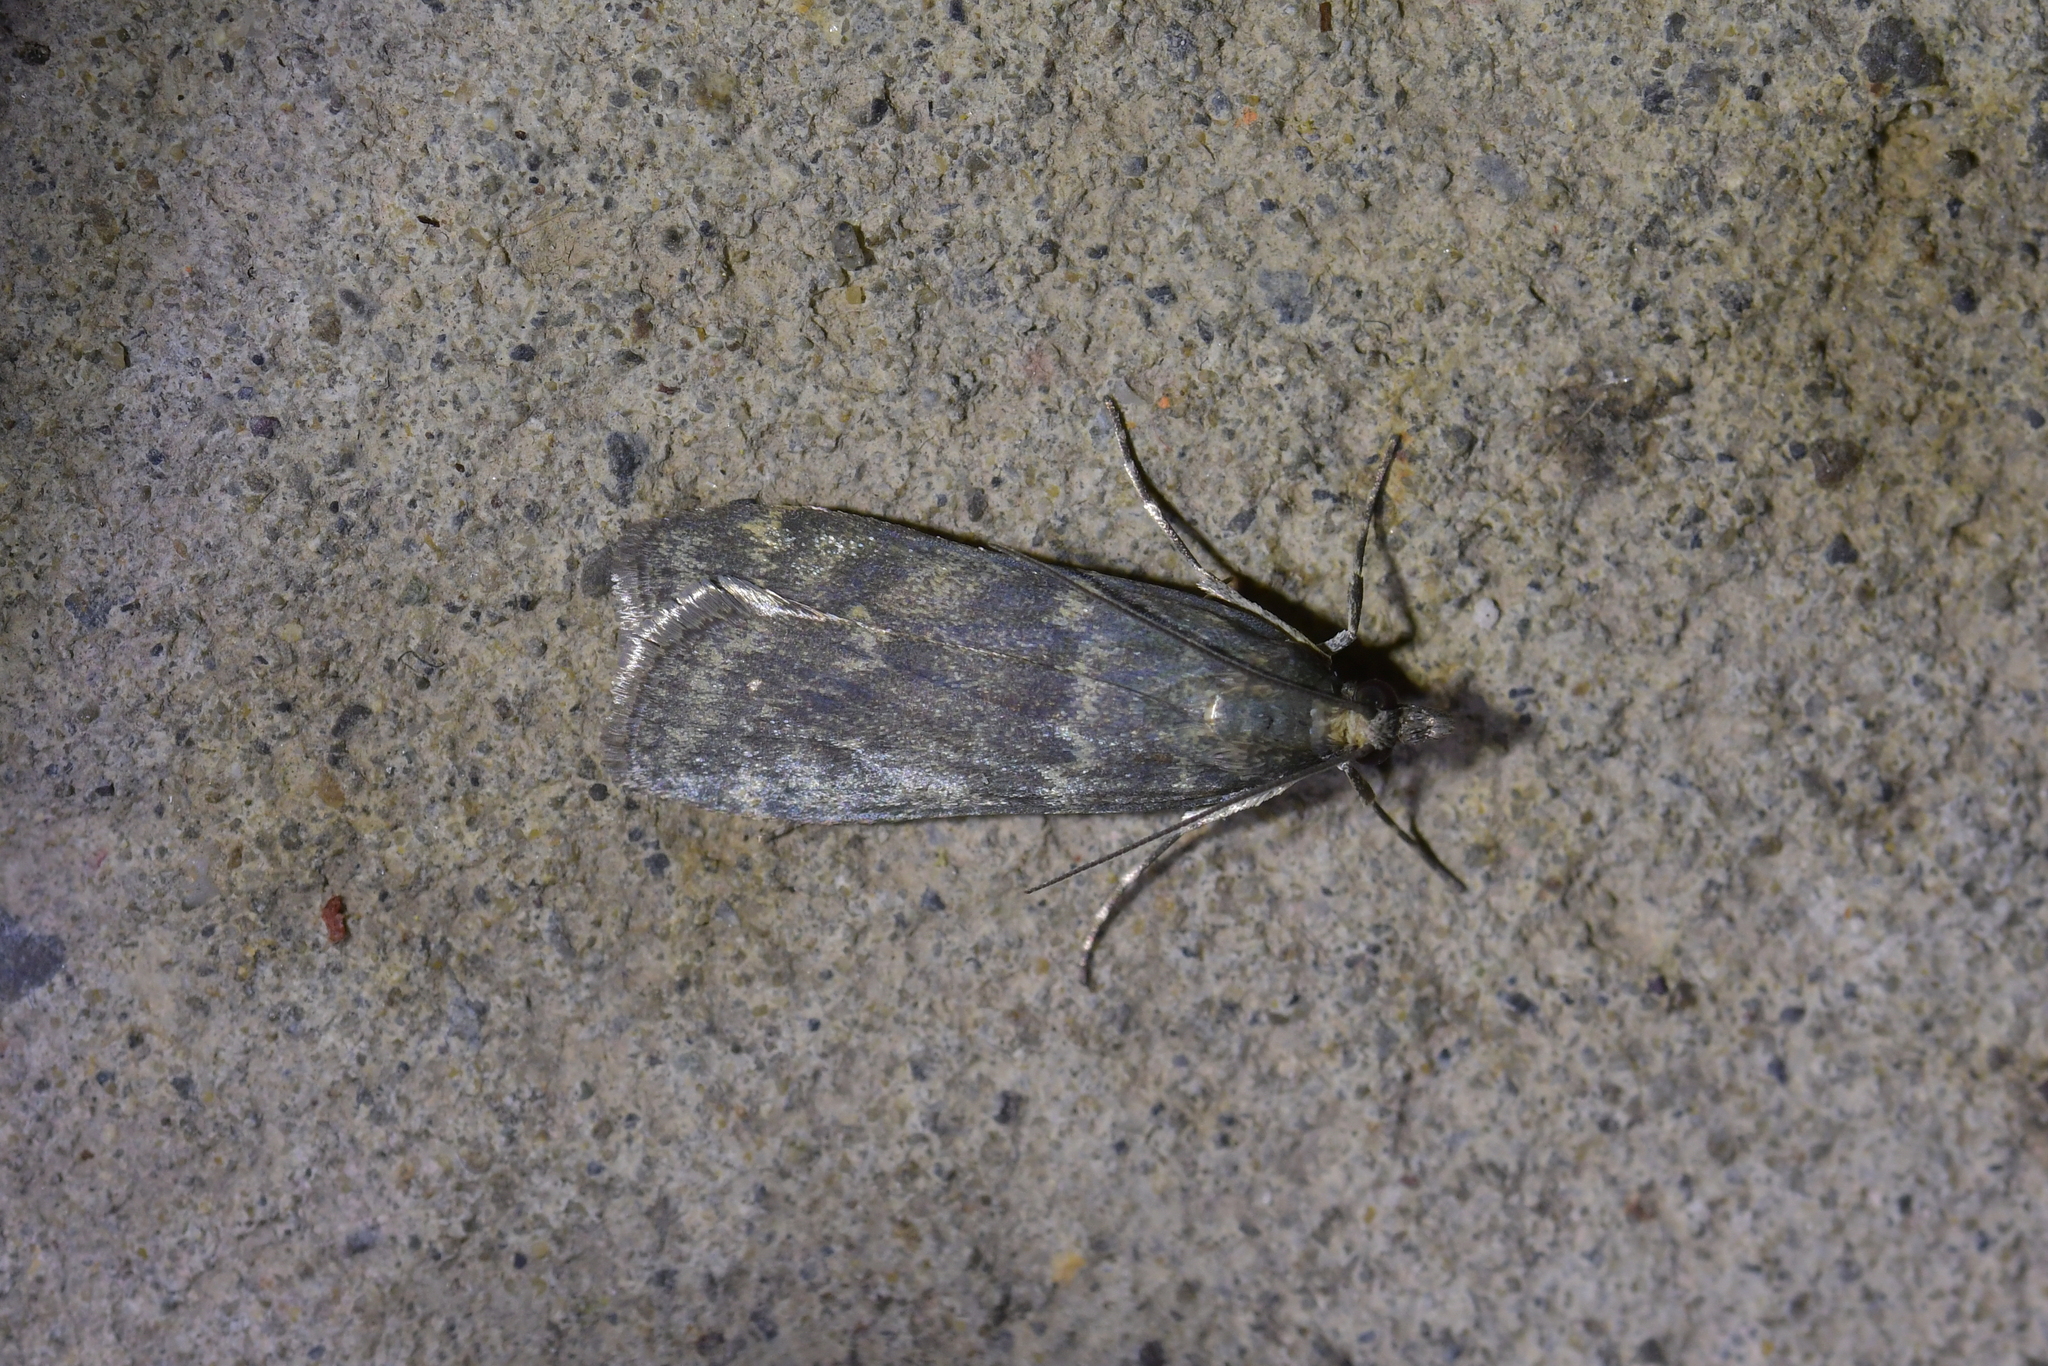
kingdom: Animalia
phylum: Arthropoda
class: Insecta
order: Lepidoptera
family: Crambidae
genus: Eudonia
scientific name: Eudonia cataxesta
